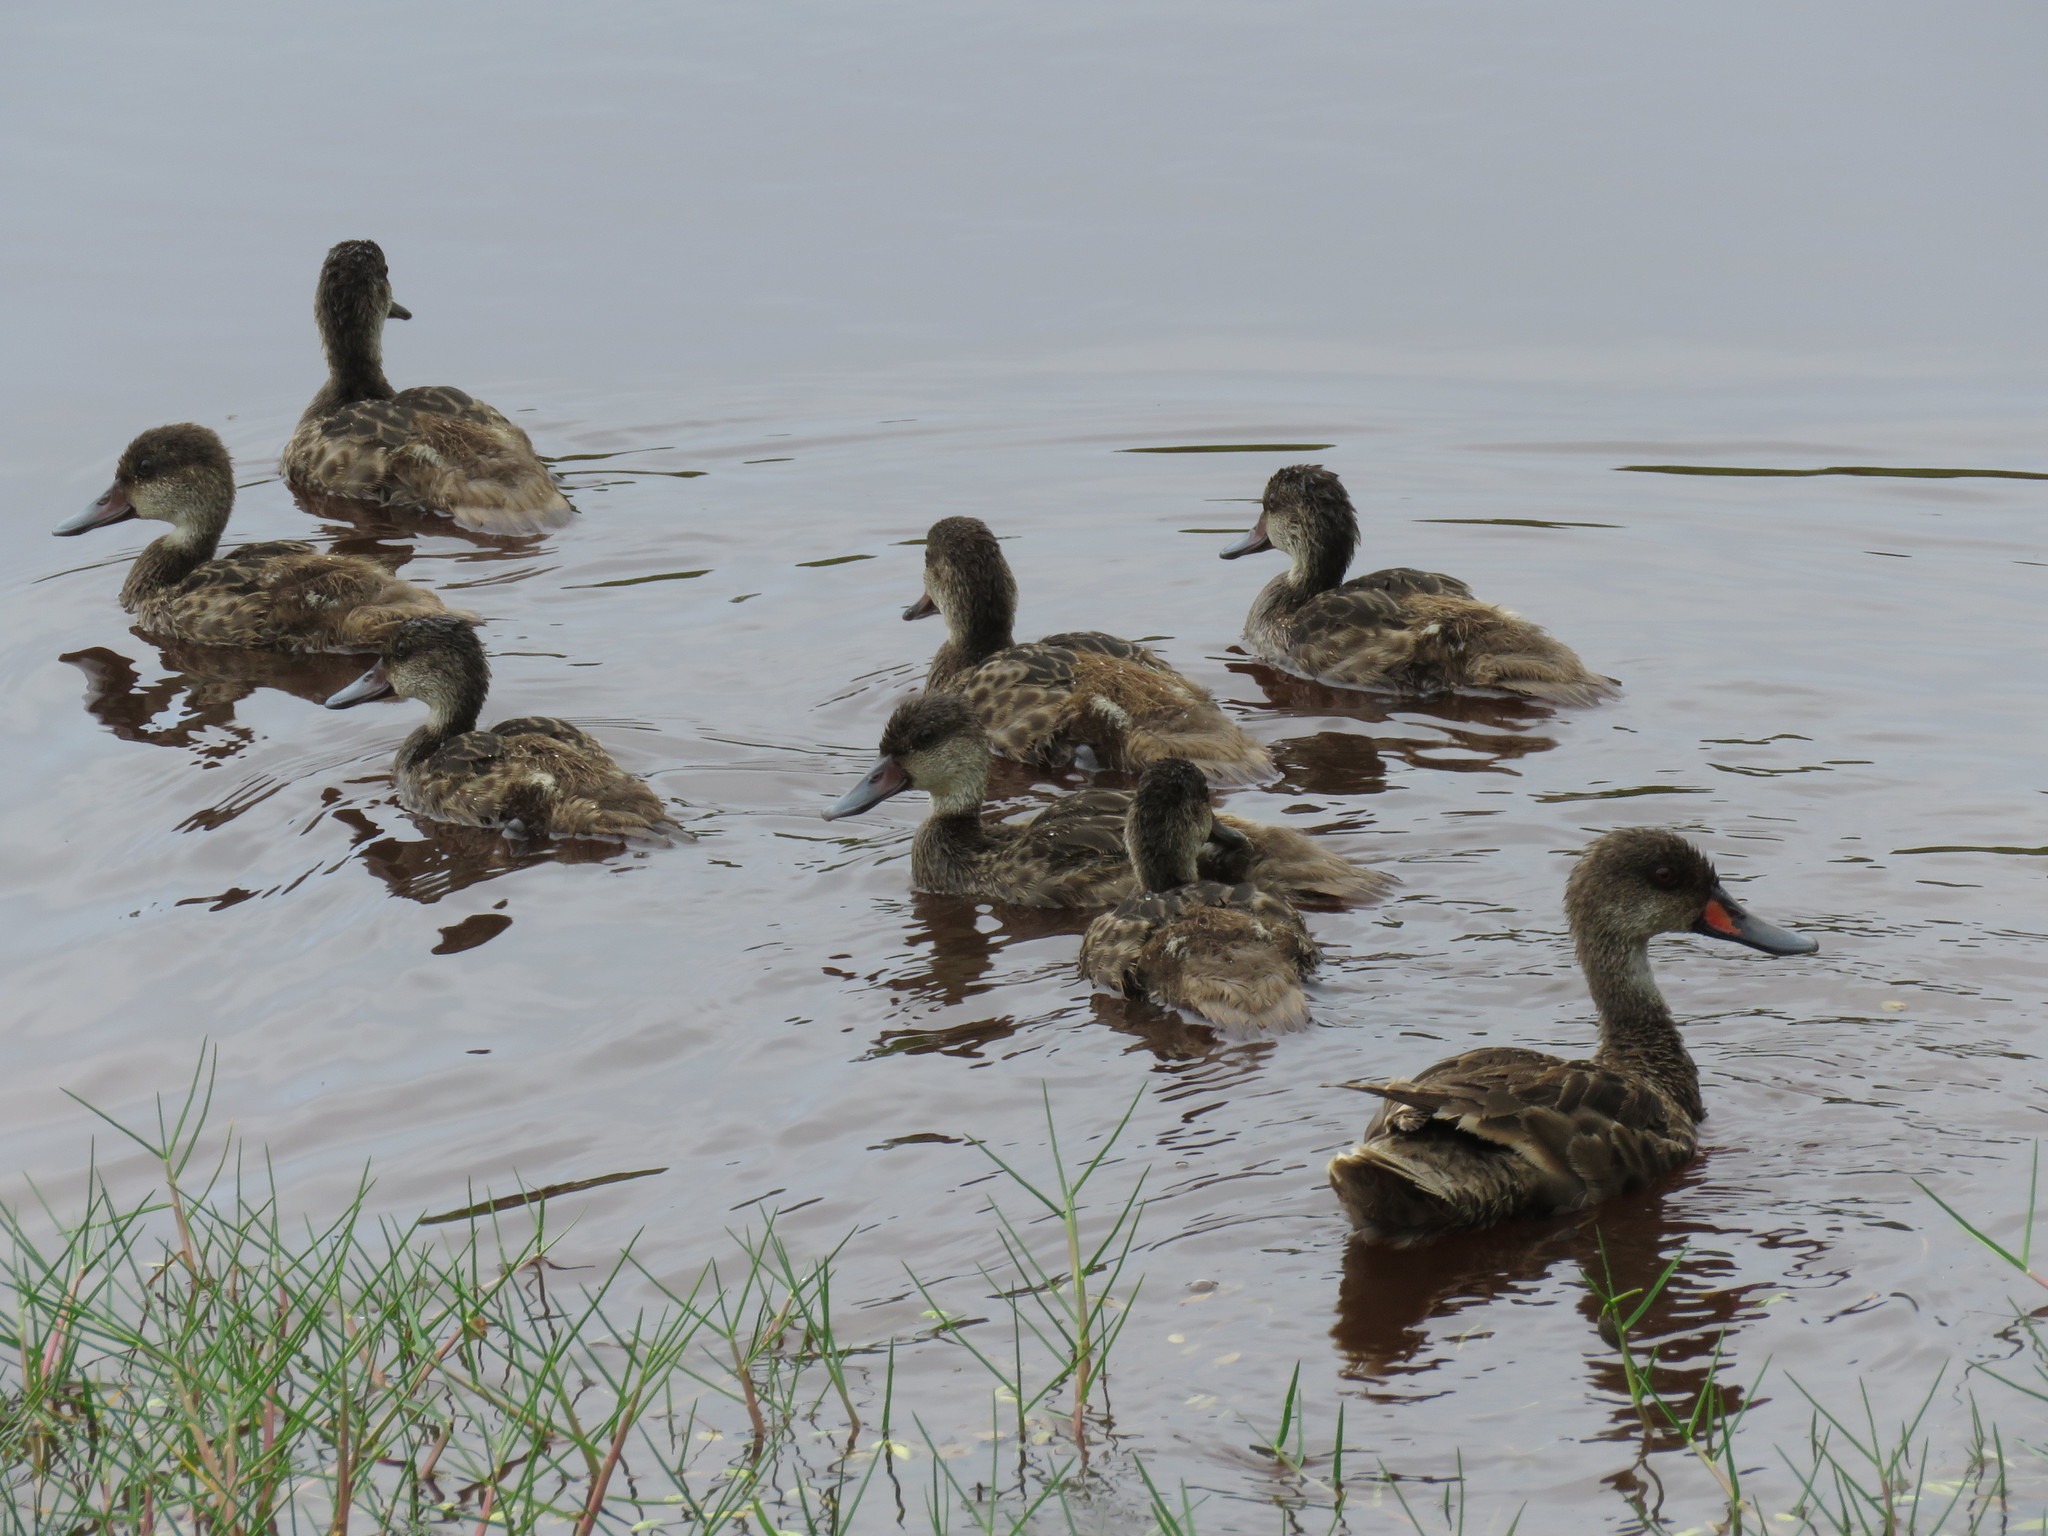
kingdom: Animalia
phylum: Chordata
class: Aves
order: Anseriformes
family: Anatidae
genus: Anas
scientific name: Anas bahamensis
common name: White-cheeked pintail
